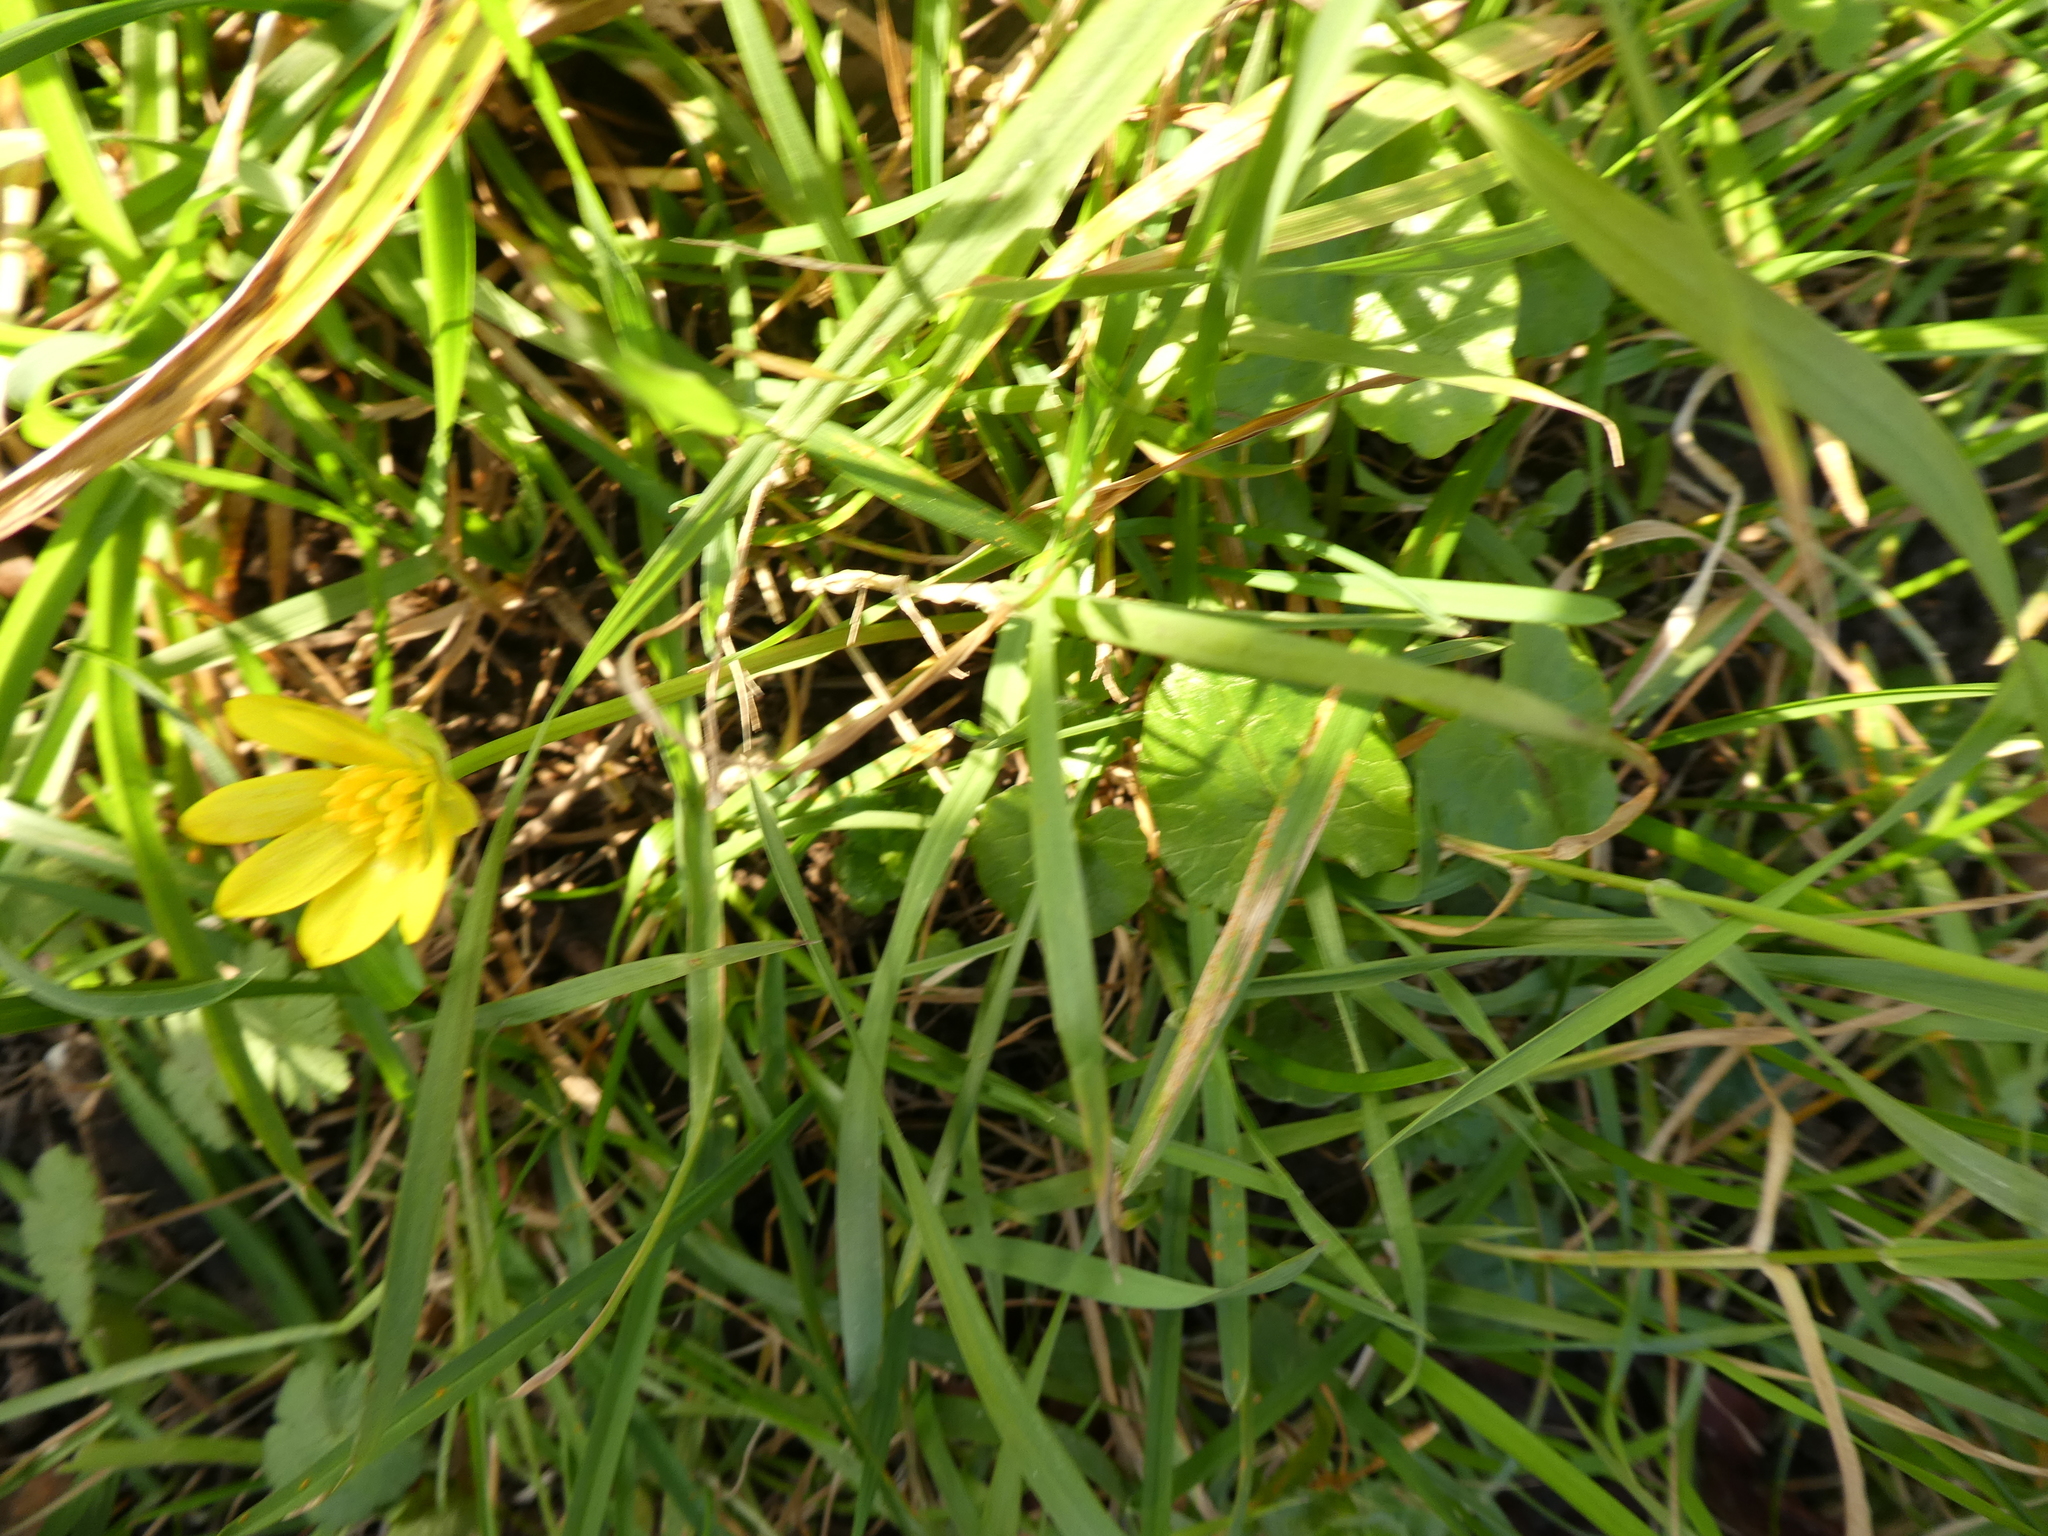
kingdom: Plantae
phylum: Tracheophyta
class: Magnoliopsida
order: Ranunculales
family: Ranunculaceae
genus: Ficaria
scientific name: Ficaria verna
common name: Lesser celandine
